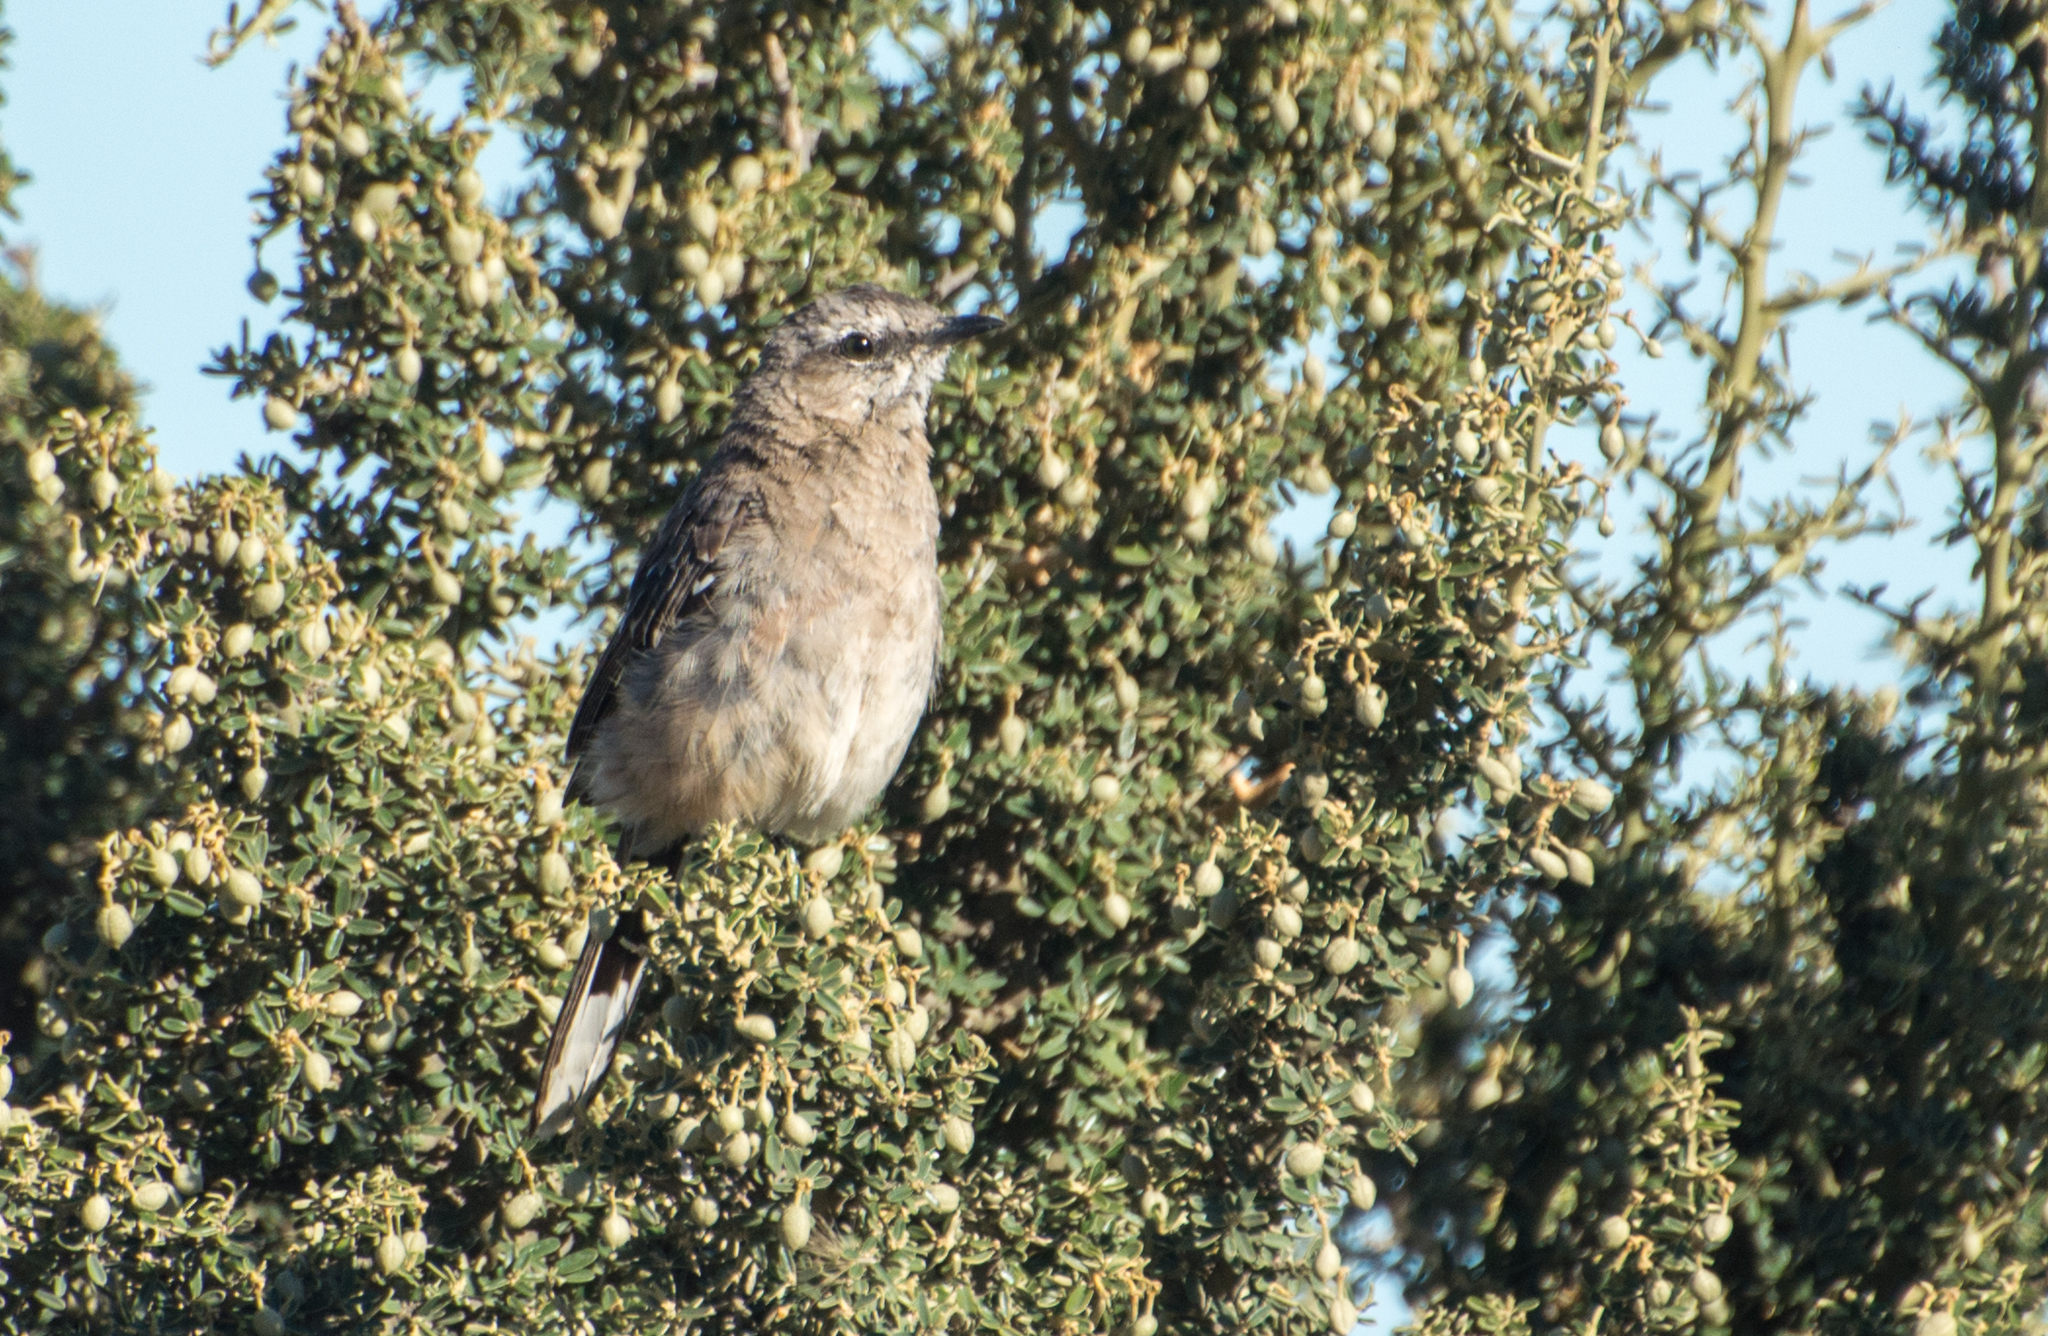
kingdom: Animalia
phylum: Chordata
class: Aves
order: Passeriformes
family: Mimidae
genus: Mimus
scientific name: Mimus patagonicus
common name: Patagonian mockingbird
